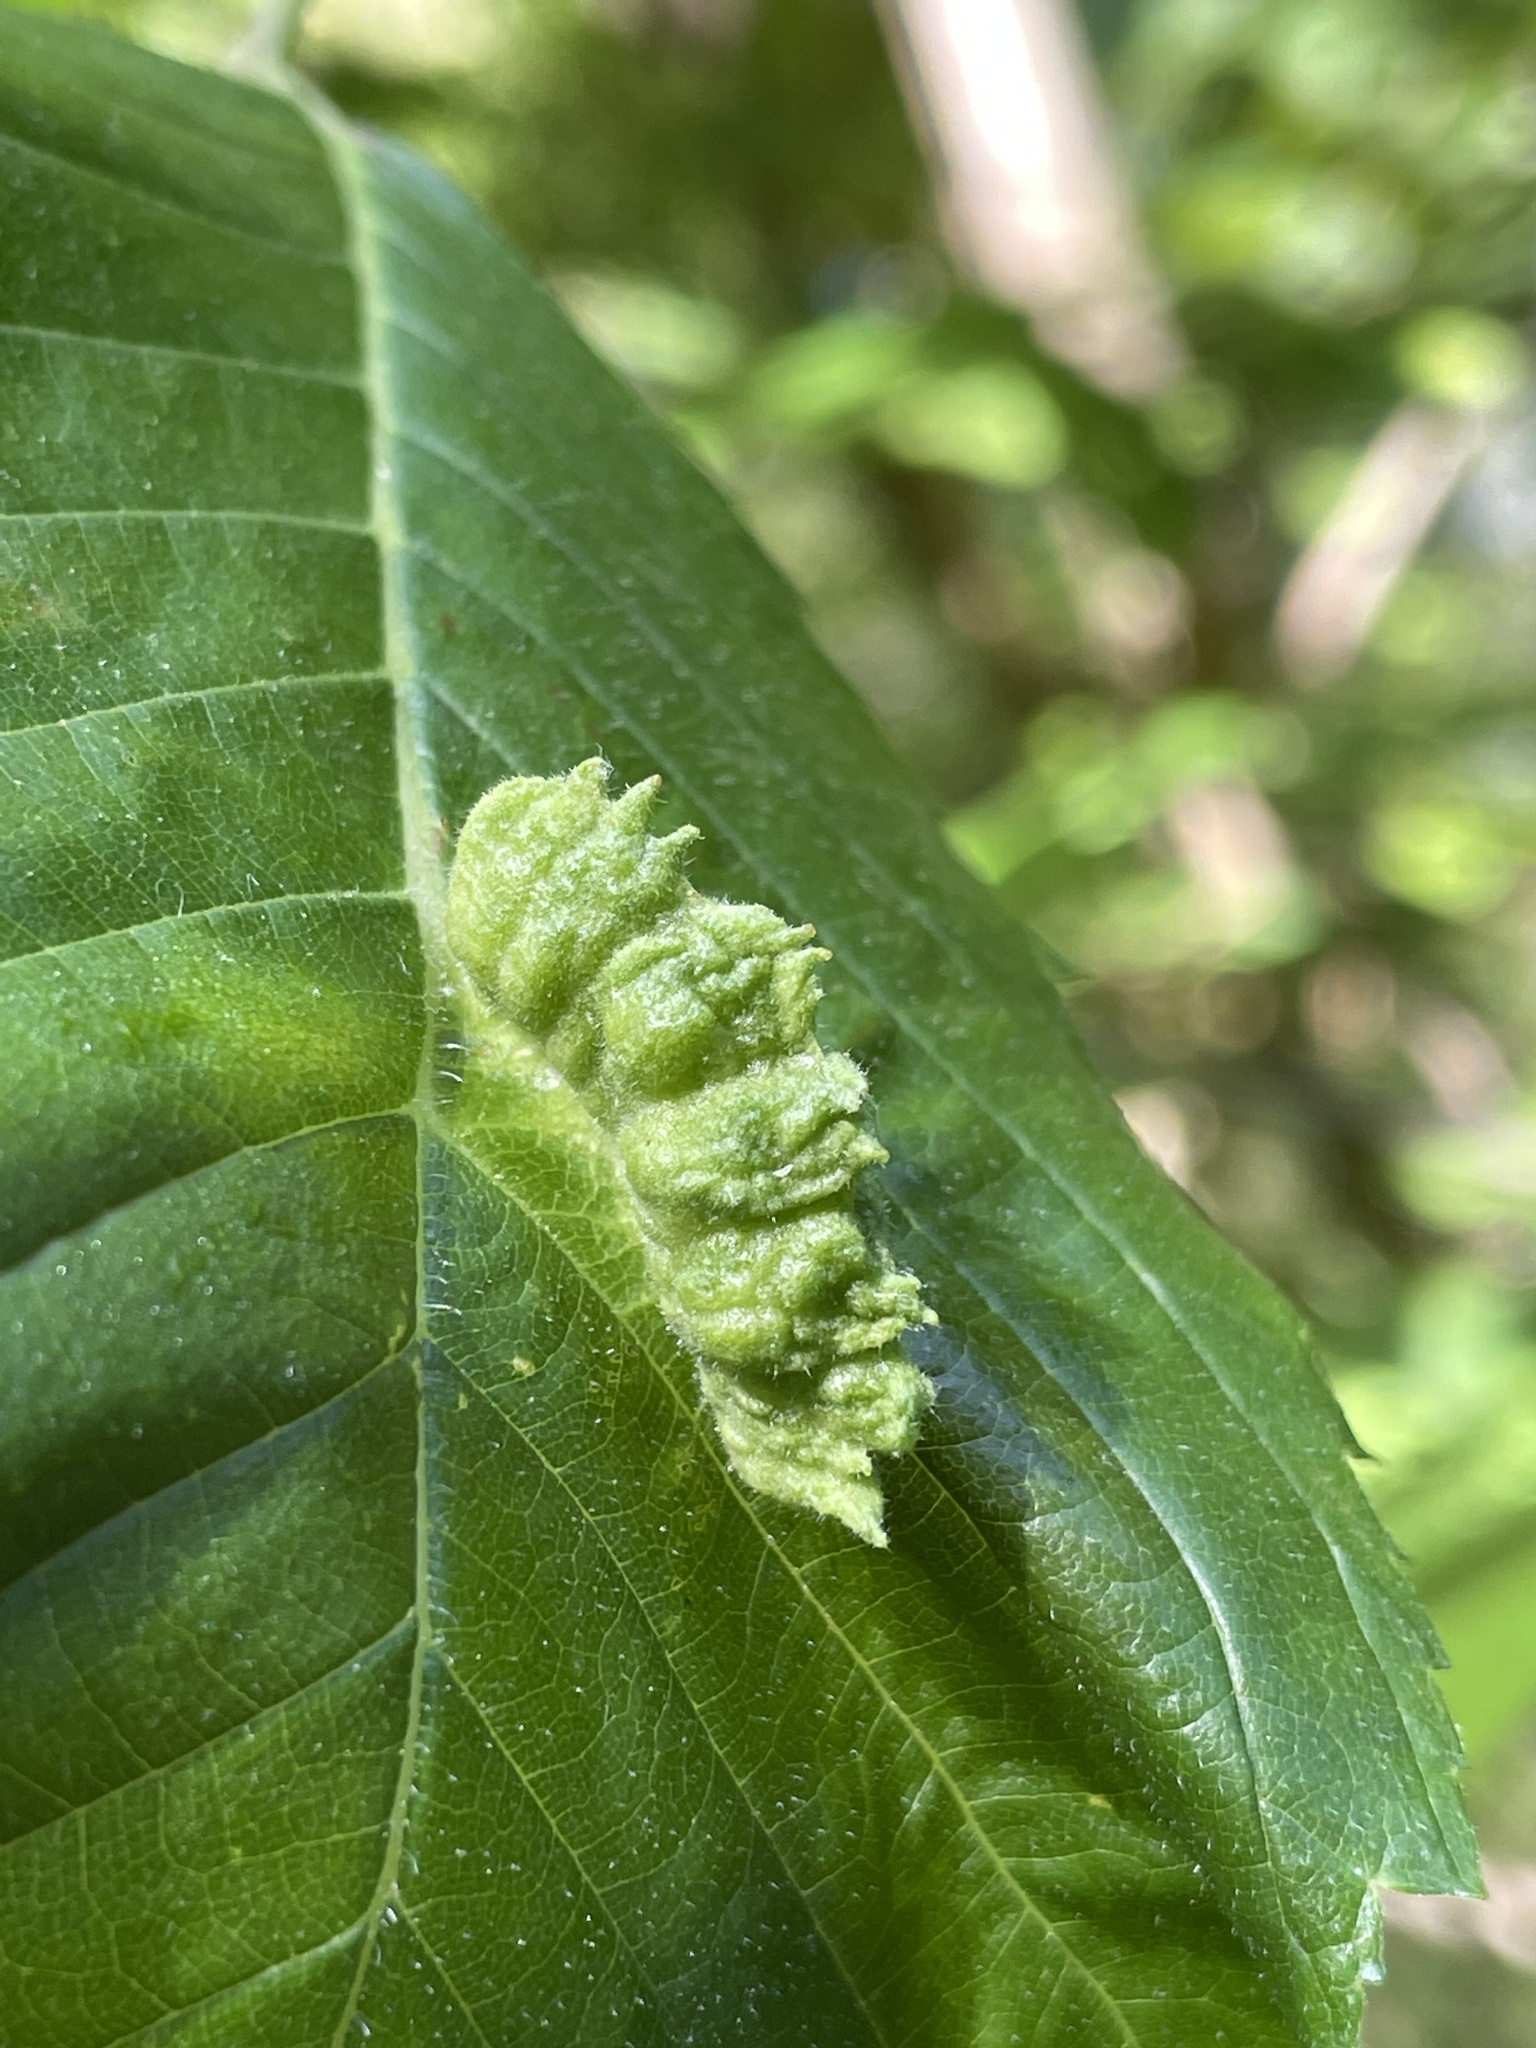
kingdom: Animalia
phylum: Arthropoda
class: Insecta
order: Hemiptera
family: Aphididae
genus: Colopha
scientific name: Colopha ulmicola
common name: Elm cockscombgall aphid
